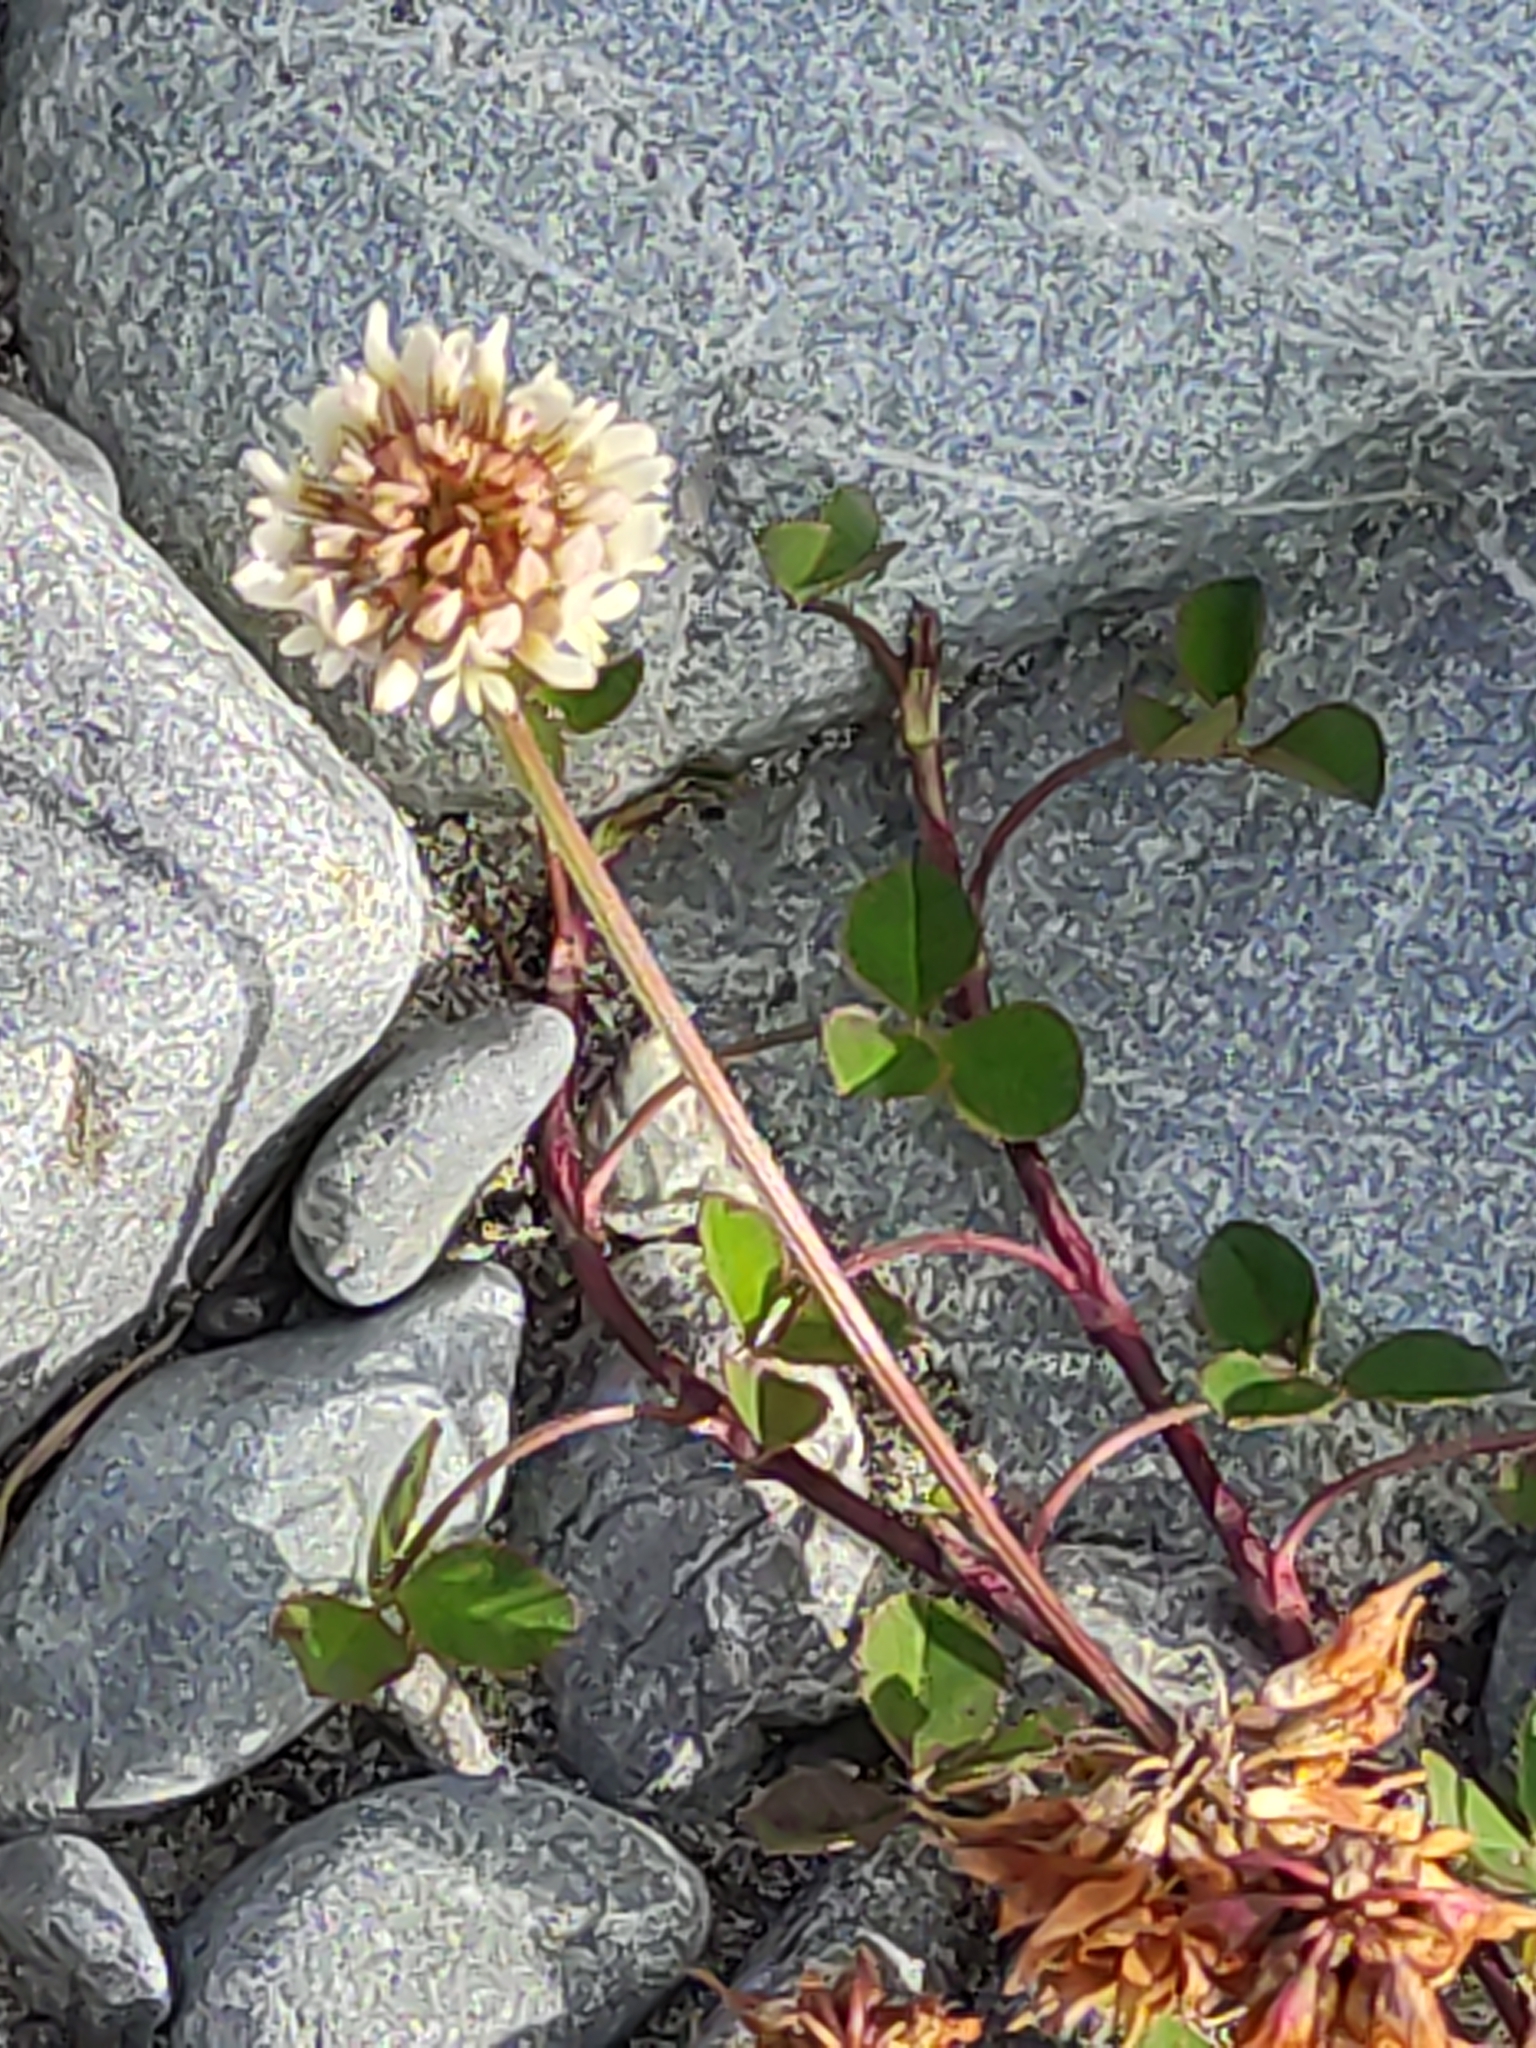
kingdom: Plantae
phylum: Tracheophyta
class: Magnoliopsida
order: Fabales
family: Fabaceae
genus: Trifolium
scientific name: Trifolium repens
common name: White clover
